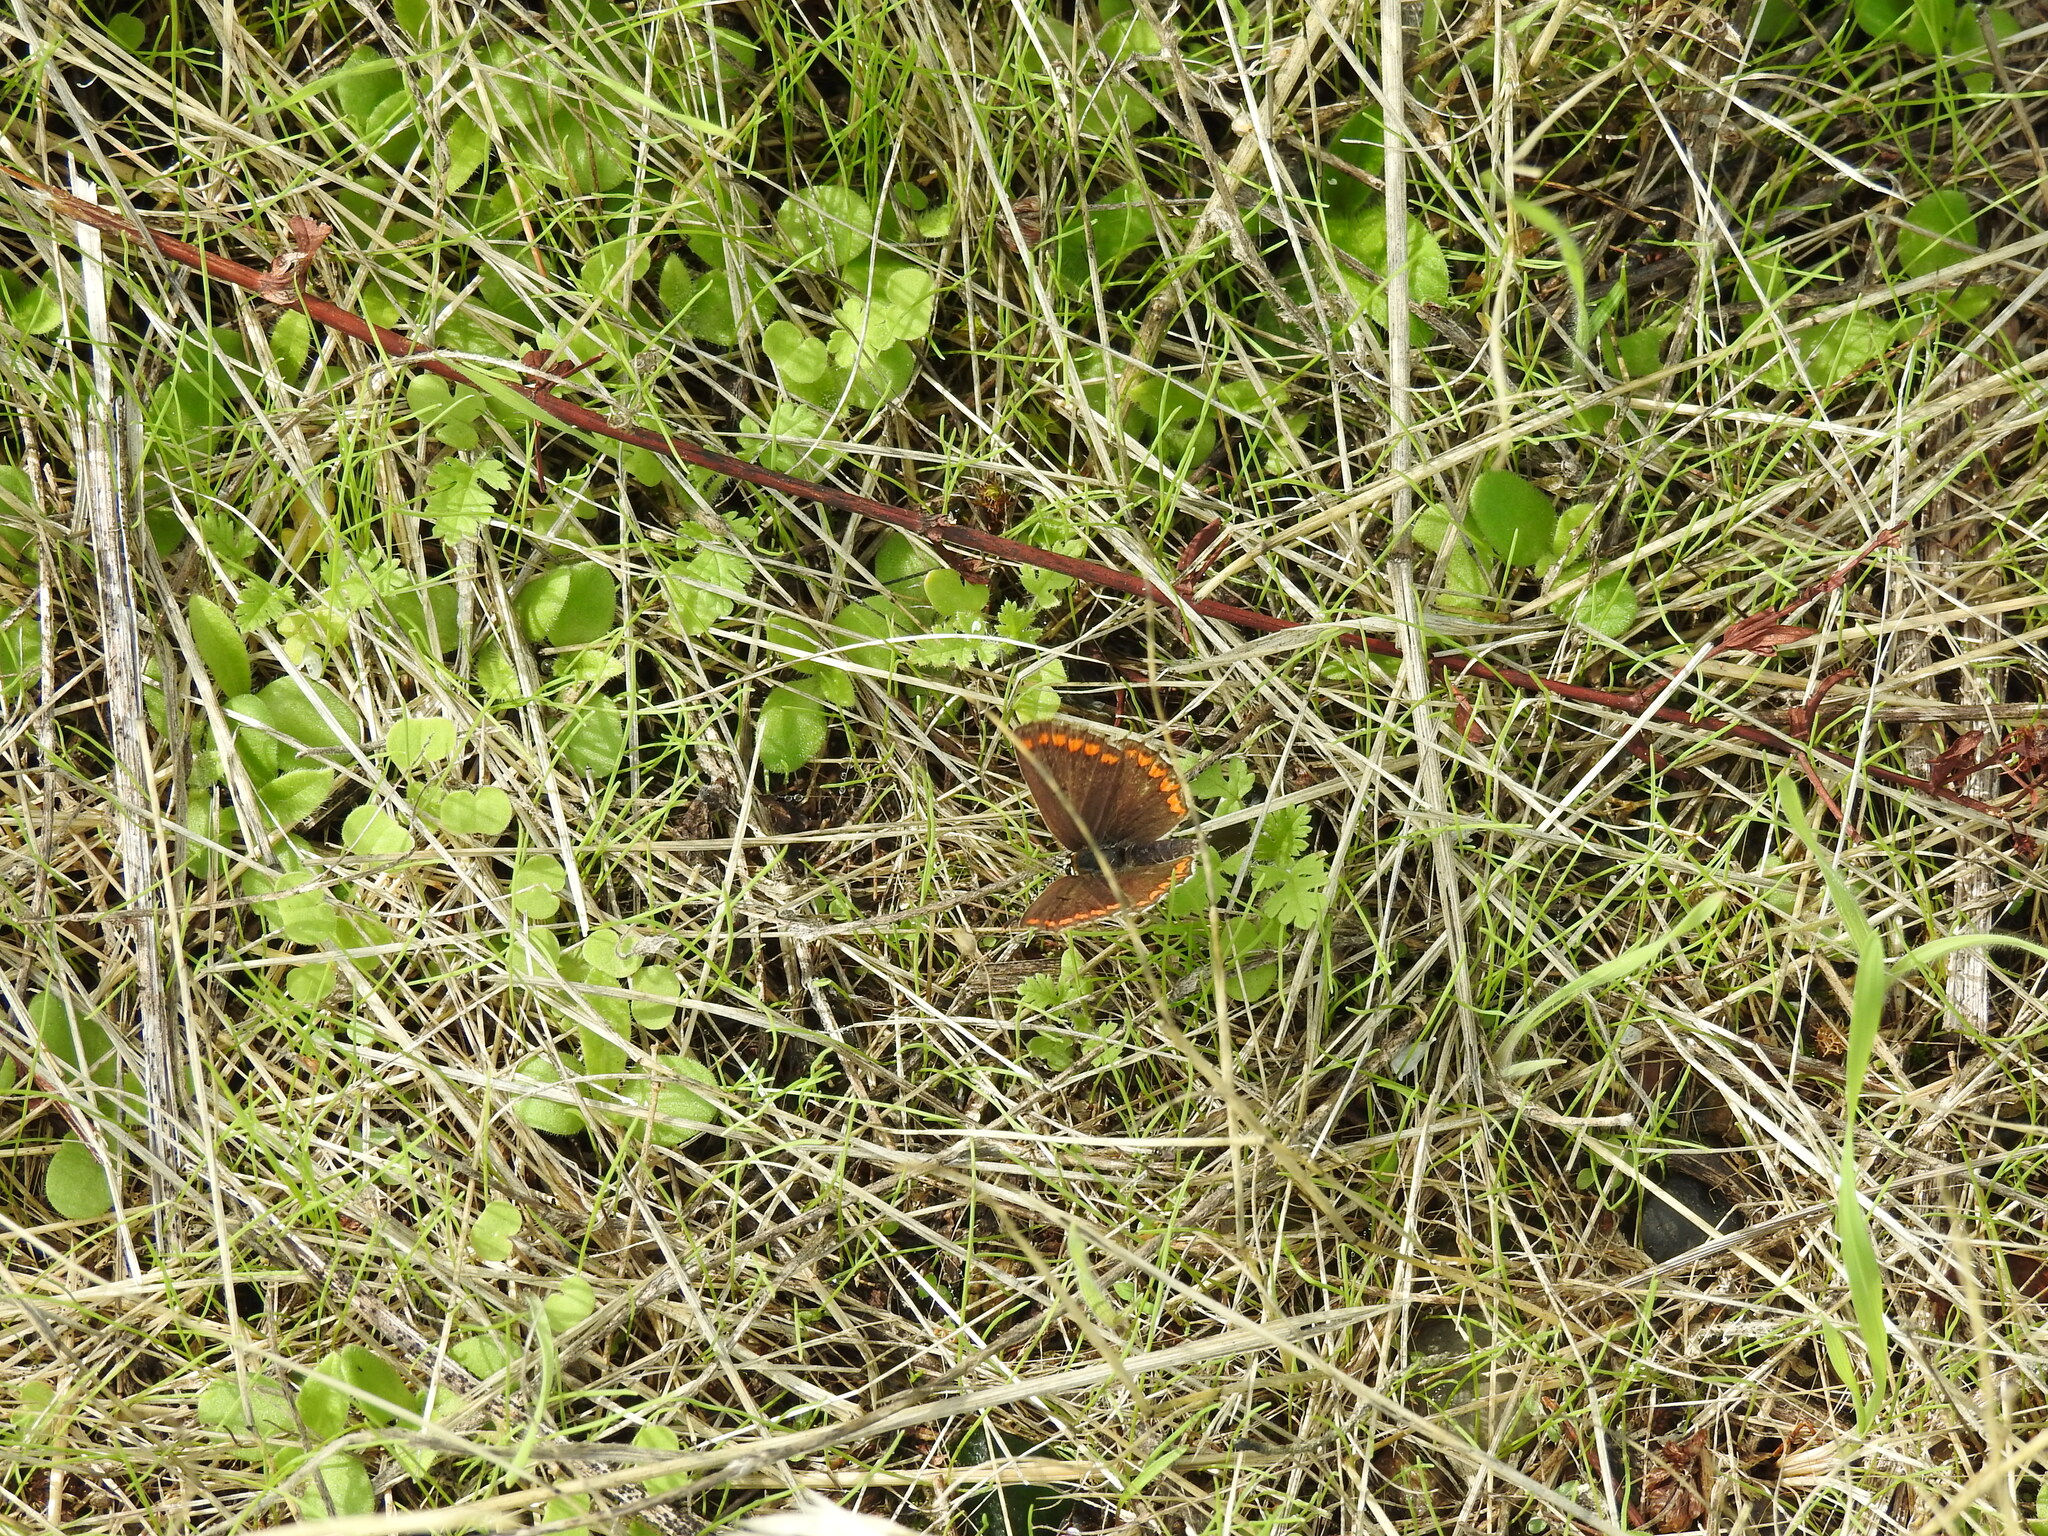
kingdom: Animalia
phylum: Arthropoda
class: Insecta
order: Lepidoptera
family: Lycaenidae
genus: Aricia
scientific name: Aricia agestis
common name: Brown argus
